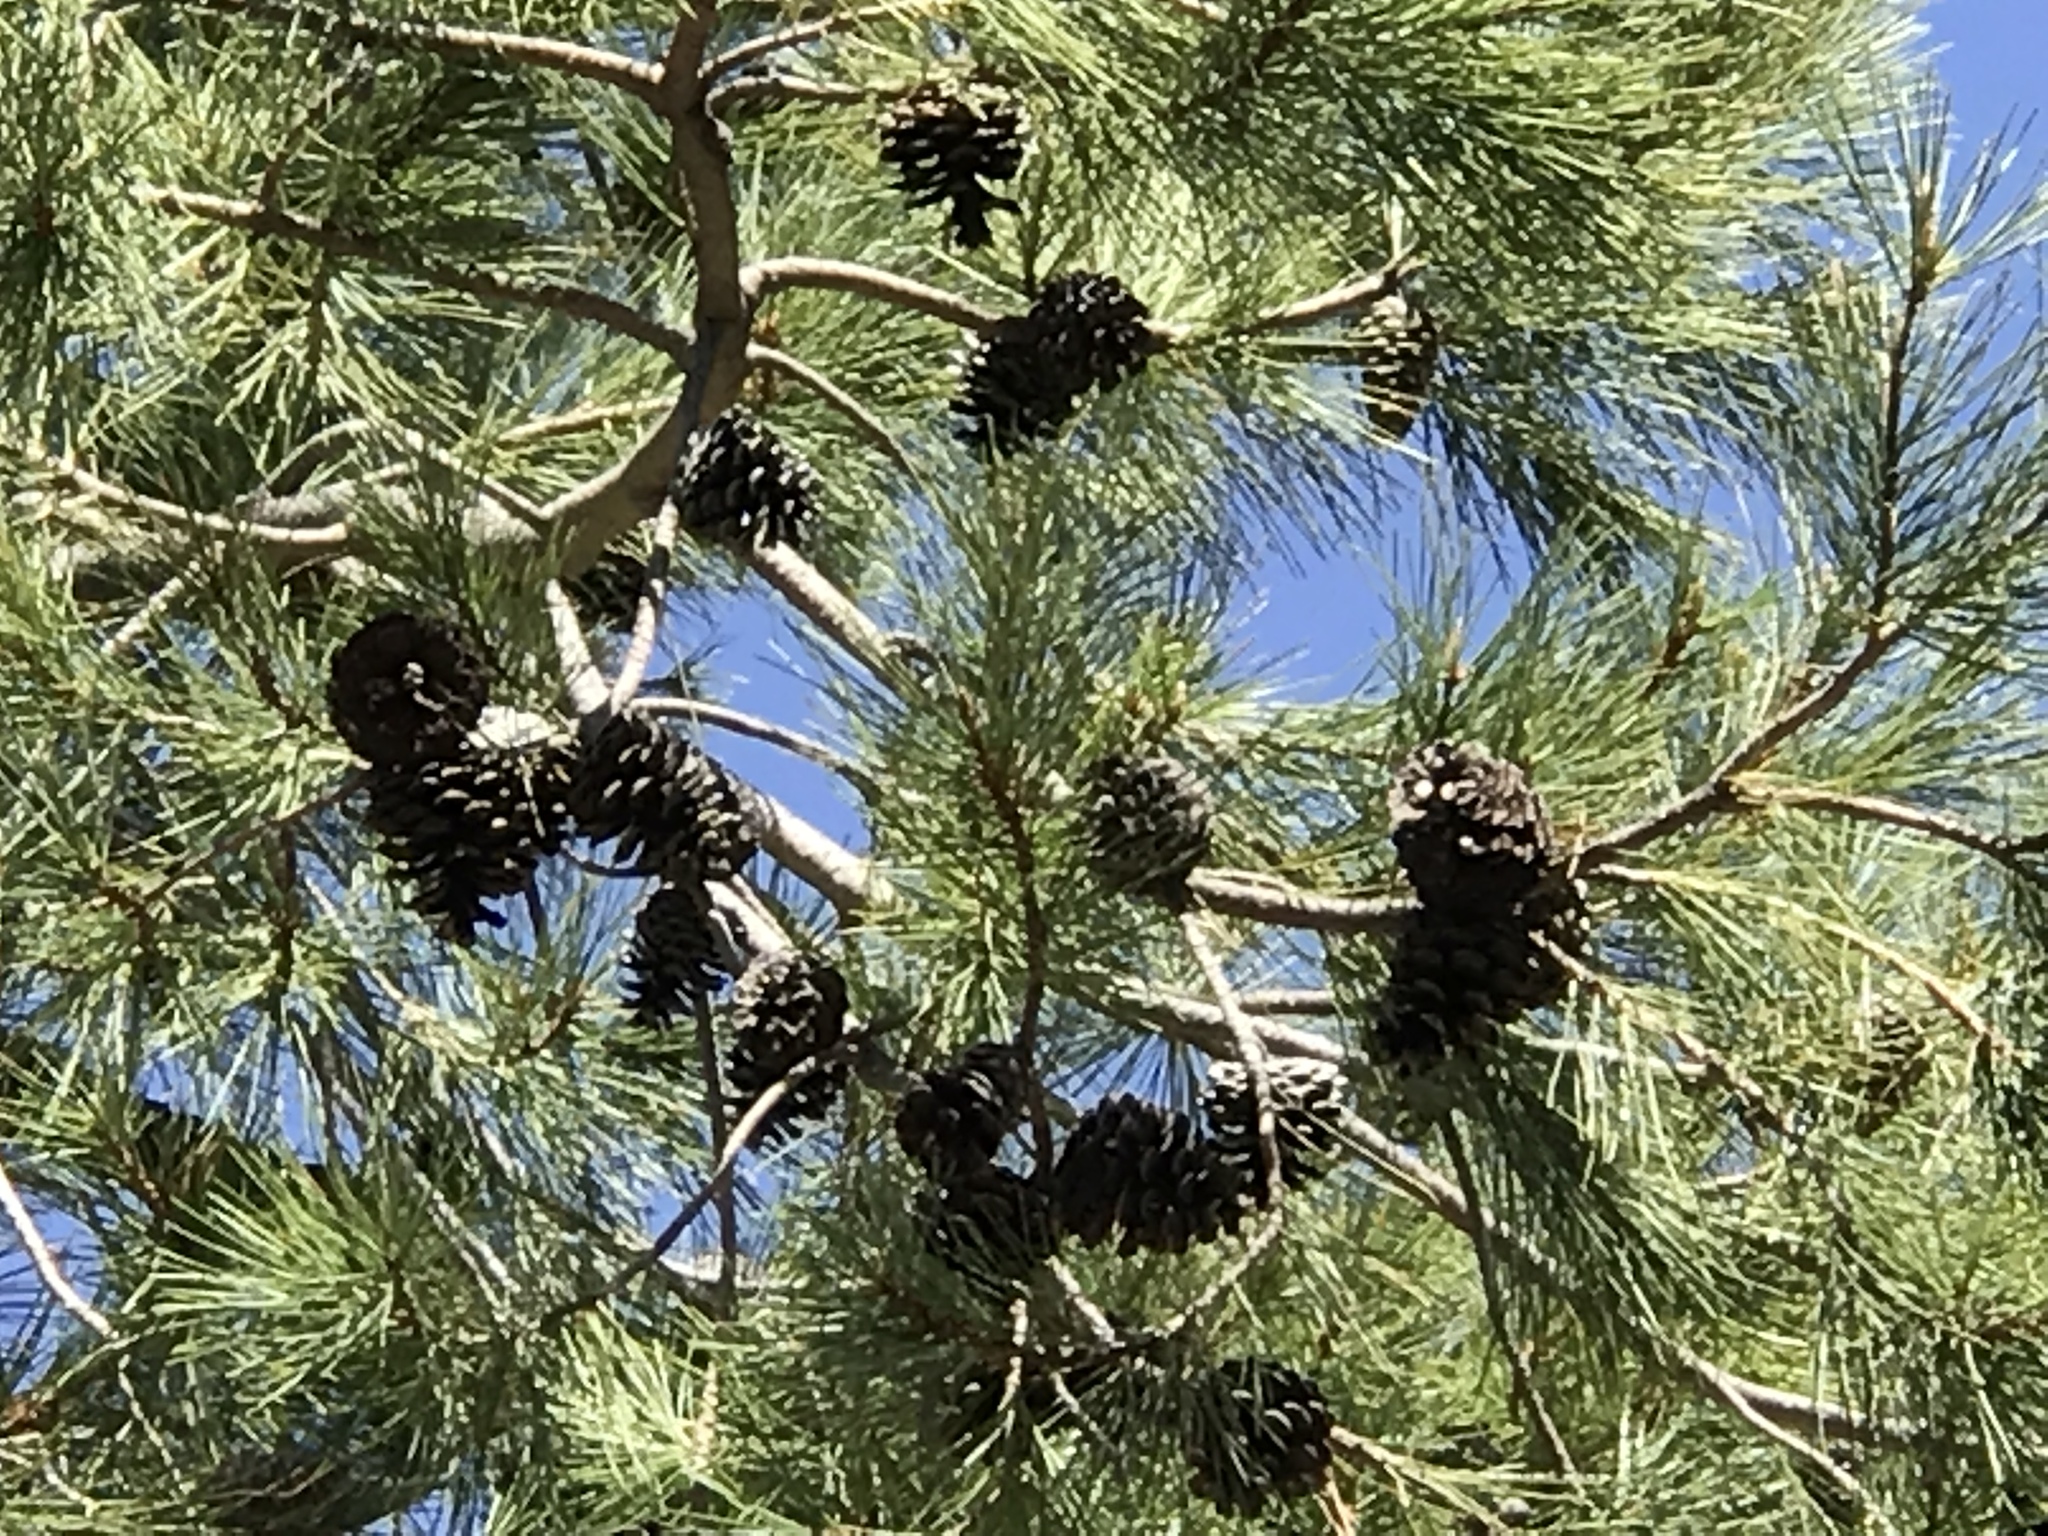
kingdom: Plantae
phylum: Tracheophyta
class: Pinopsida
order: Pinales
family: Pinaceae
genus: Pinus
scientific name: Pinus leiophylla
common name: Chihuahua pine
